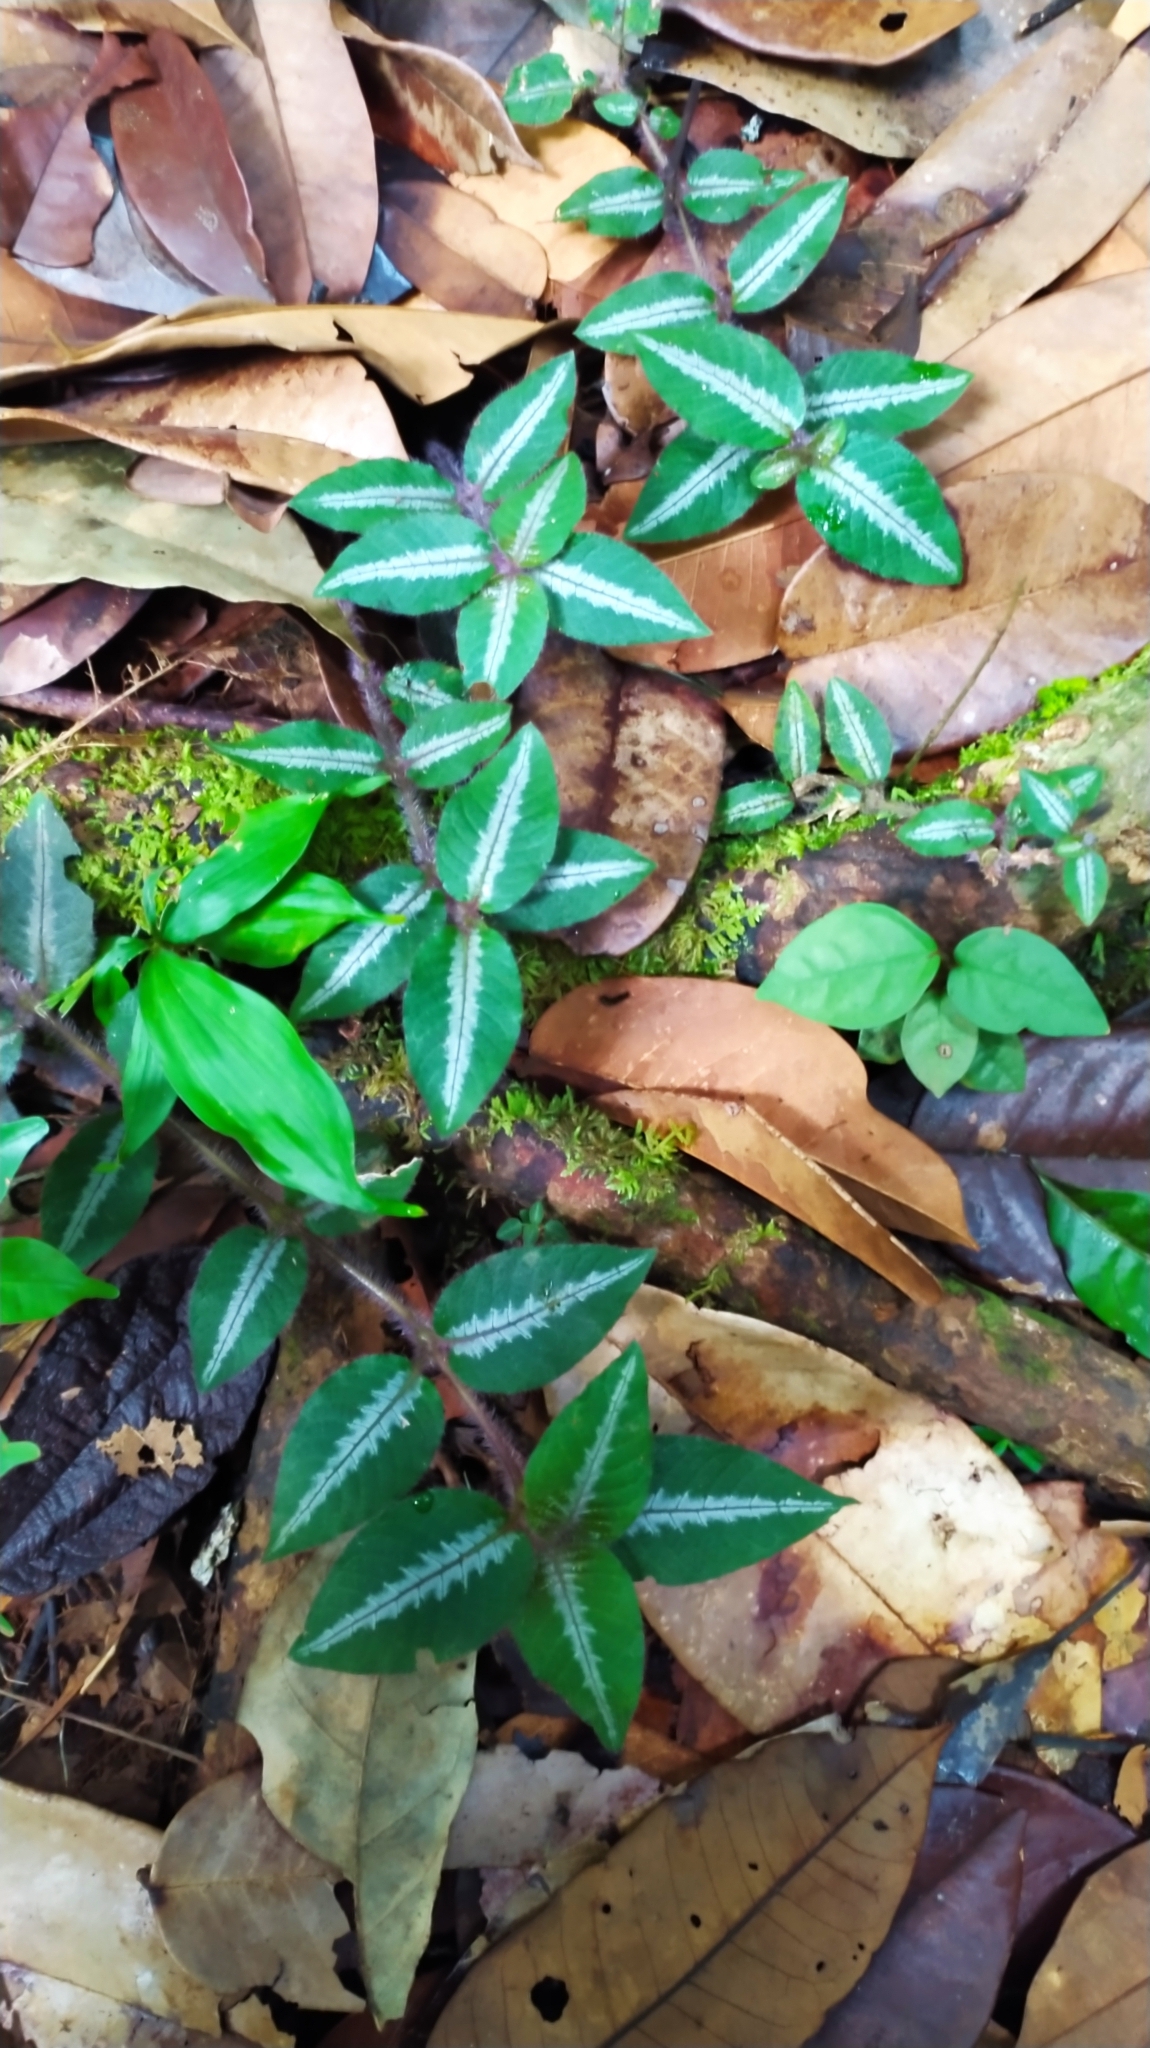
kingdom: Plantae
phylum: Tracheophyta
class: Magnoliopsida
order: Gentianales
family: Rubiaceae
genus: Palicourea
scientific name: Palicourea debilis
